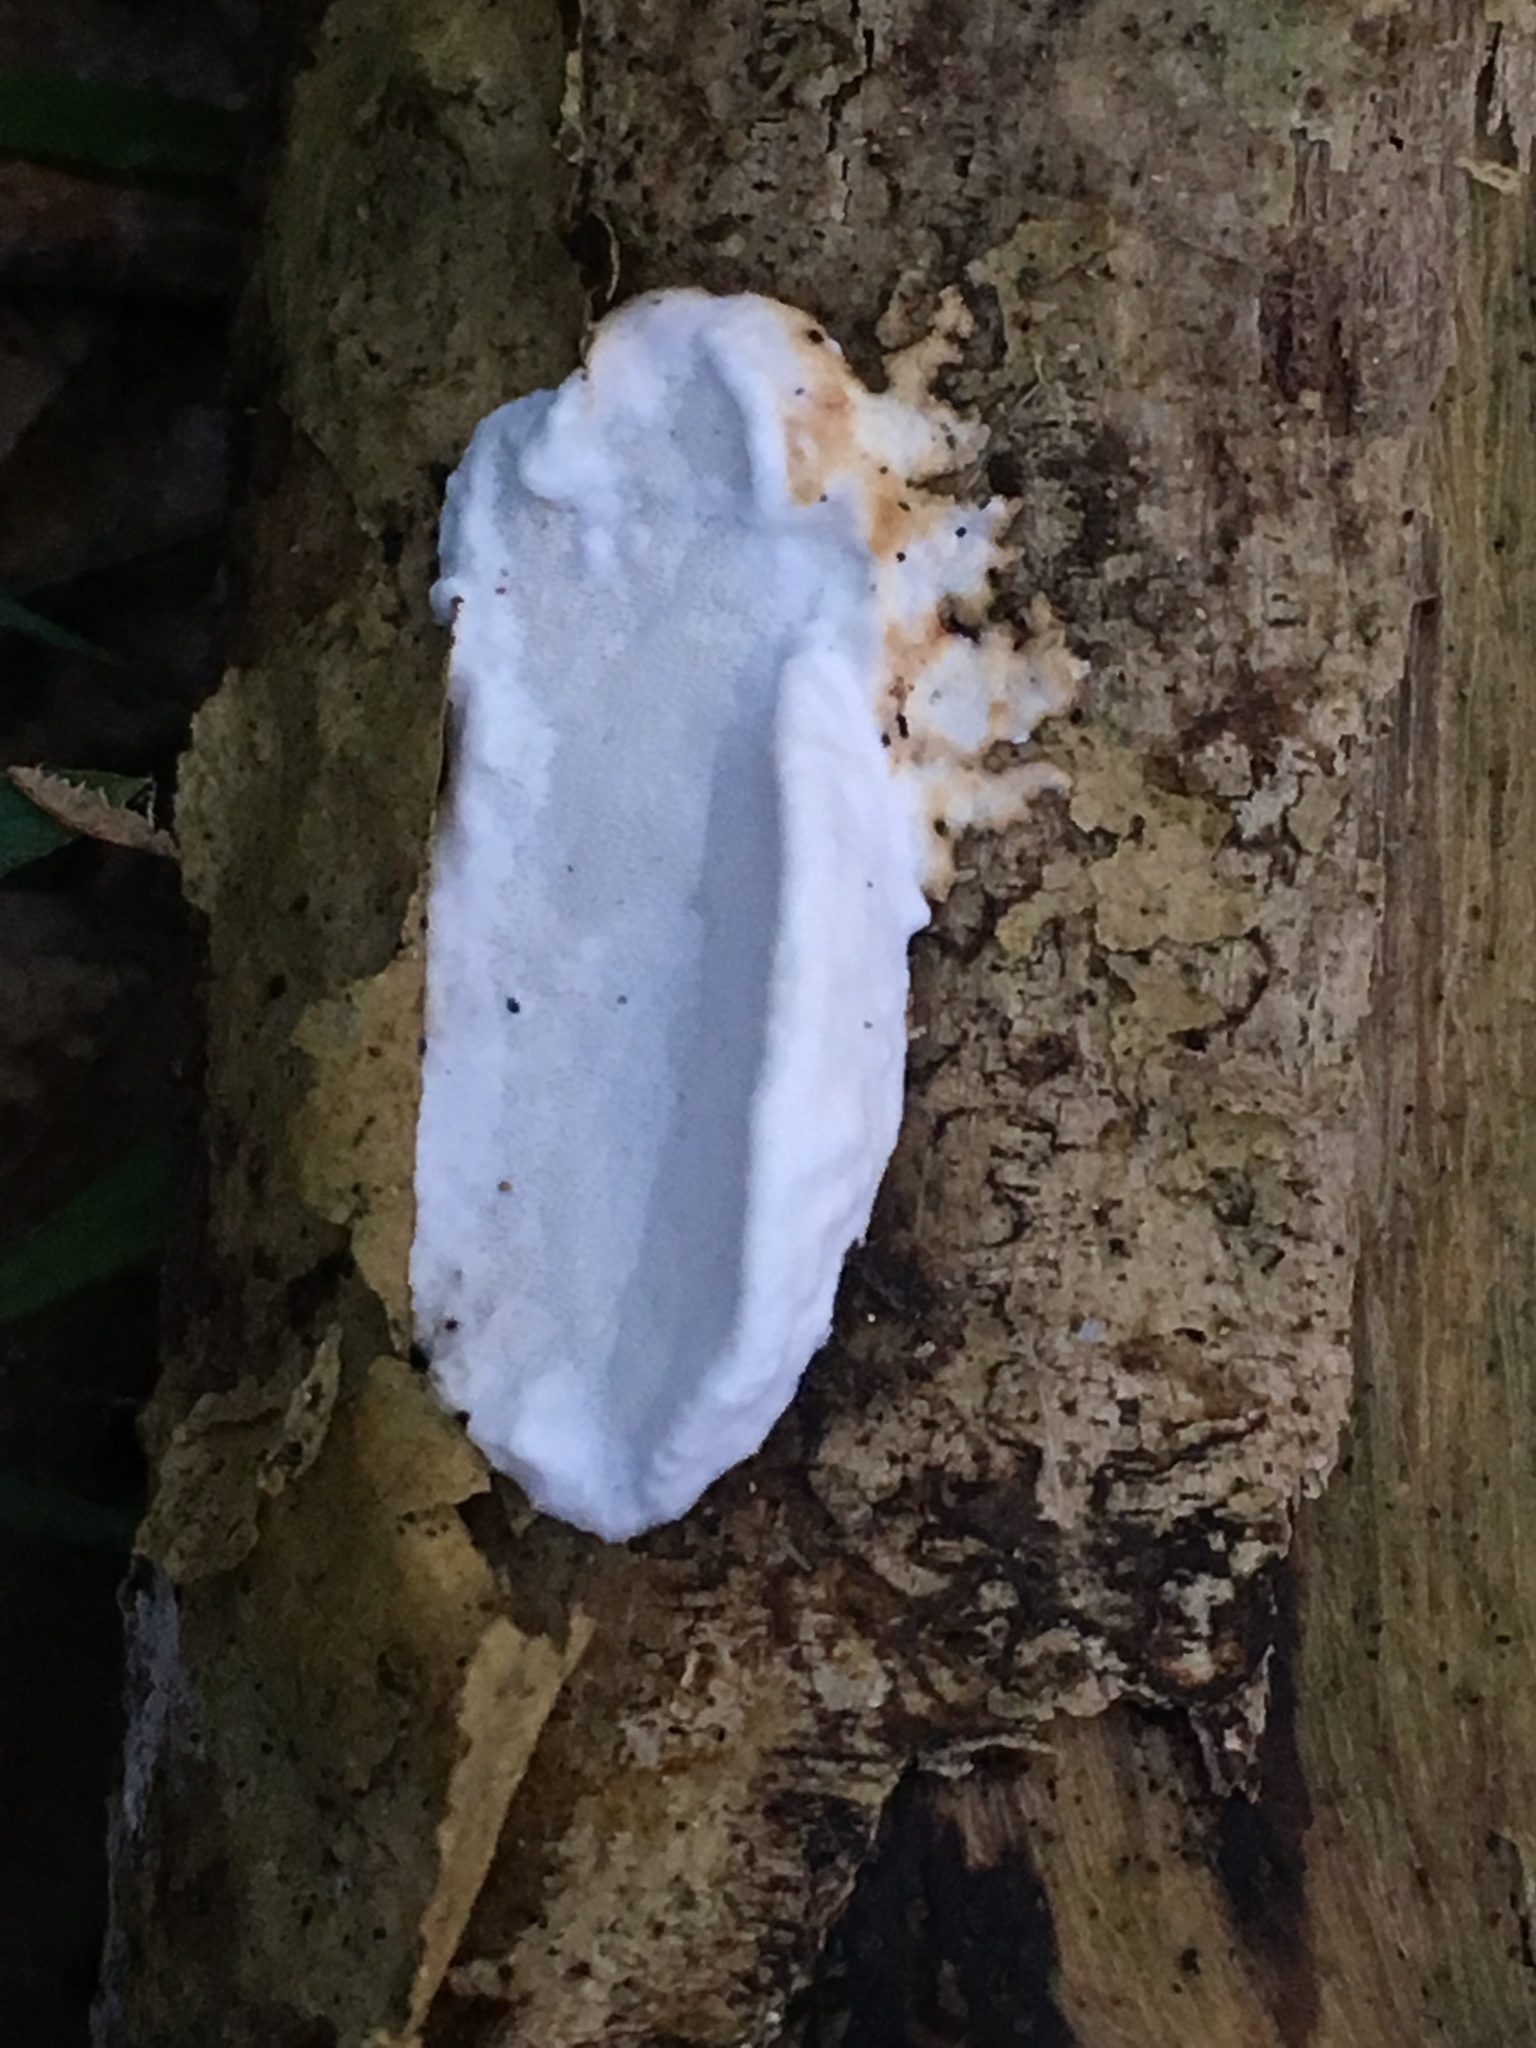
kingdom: Fungi
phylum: Basidiomycota
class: Agaricomycetes
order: Polyporales
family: Incrustoporiaceae
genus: Skeletocutis
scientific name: Skeletocutis nivea
